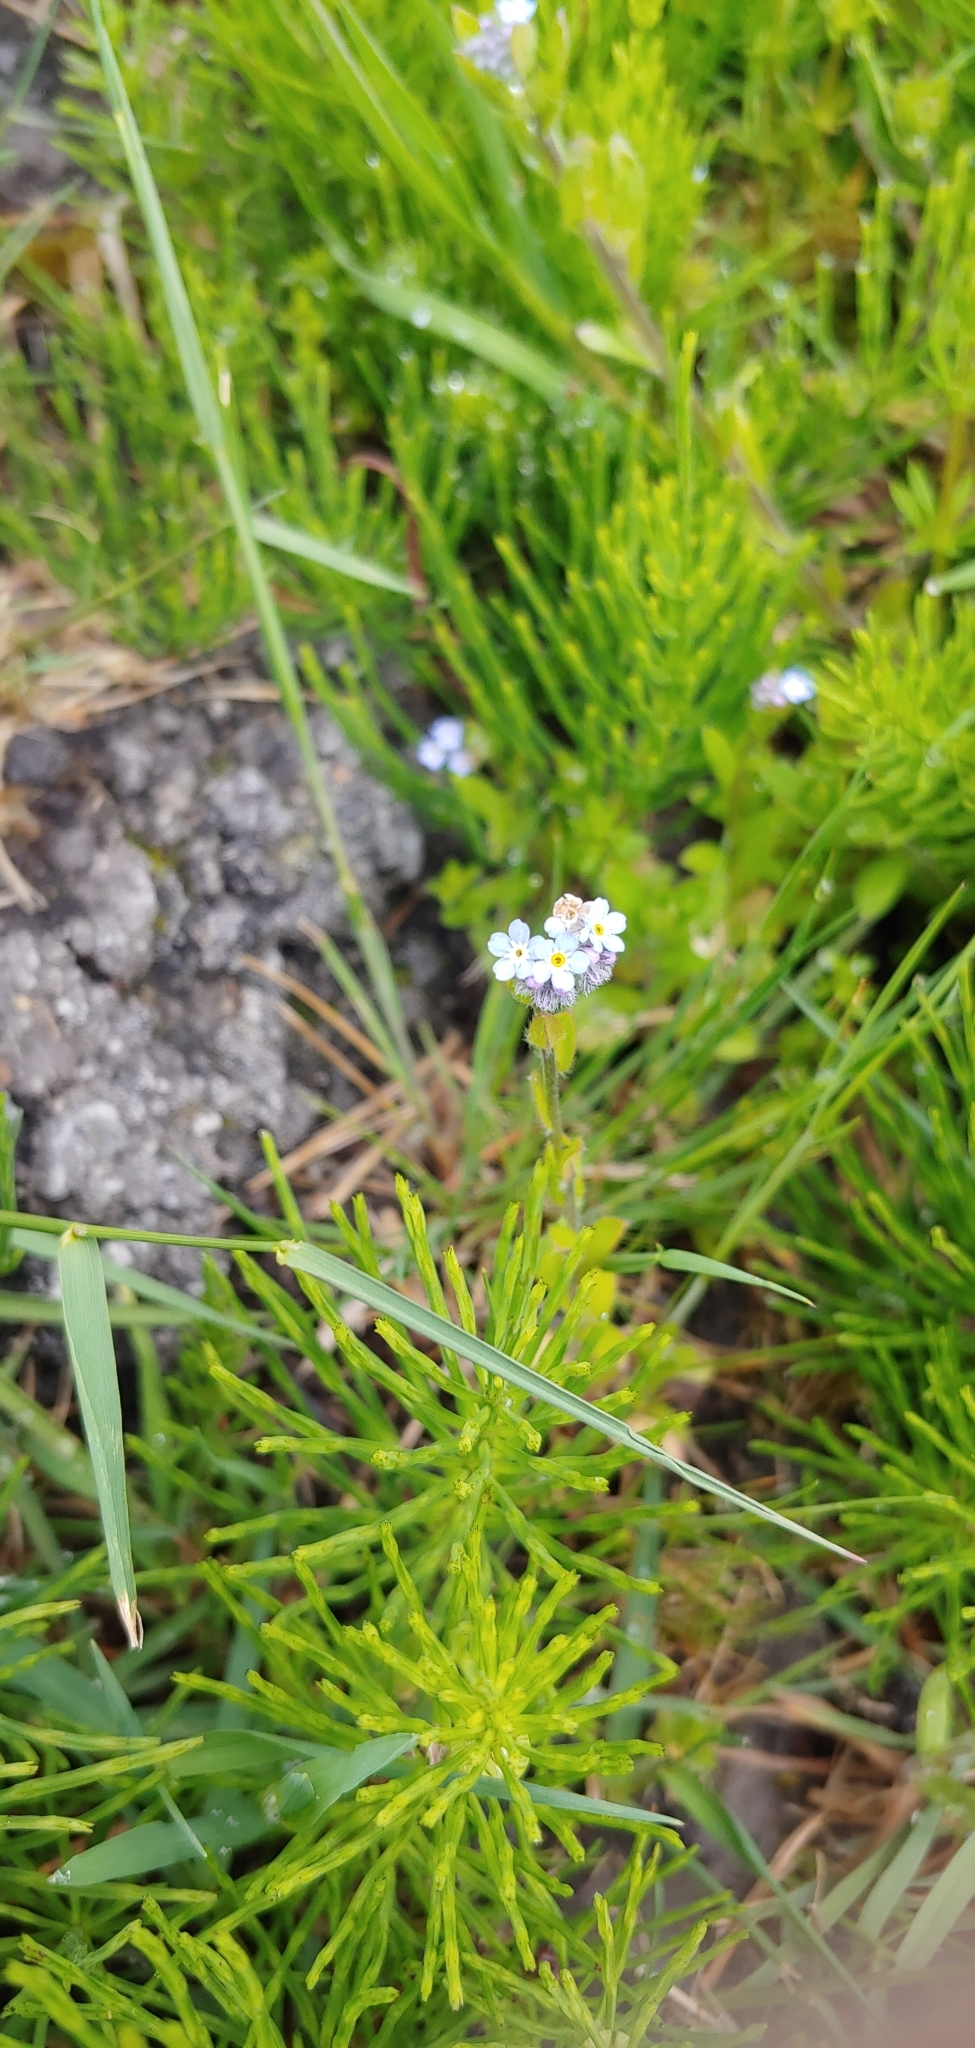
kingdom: Plantae
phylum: Tracheophyta
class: Magnoliopsida
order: Boraginales
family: Boraginaceae
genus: Myosotis
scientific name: Myosotis arvensis
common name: Field forget-me-not
